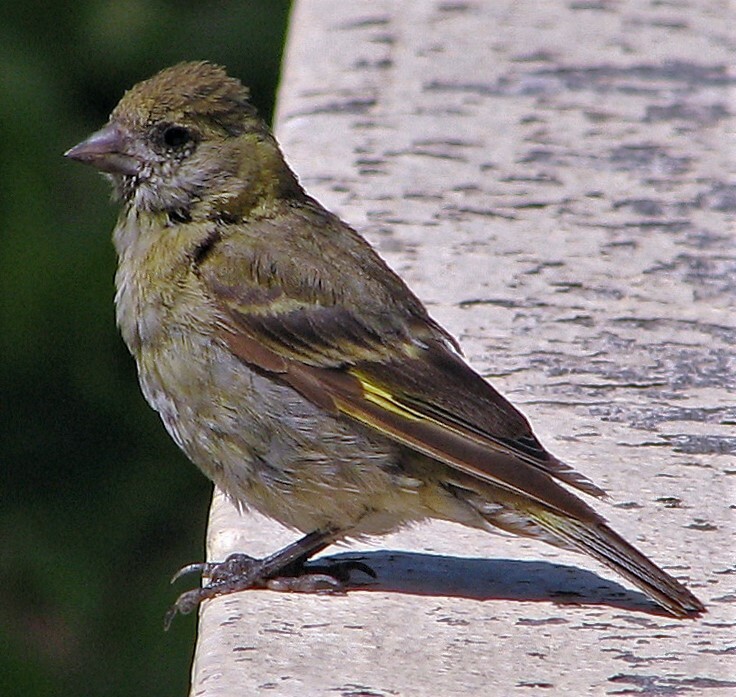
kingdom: Animalia
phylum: Chordata
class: Aves
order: Passeriformes
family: Fringillidae
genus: Spinus
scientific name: Spinus barbatus
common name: Black-chinned siskin
